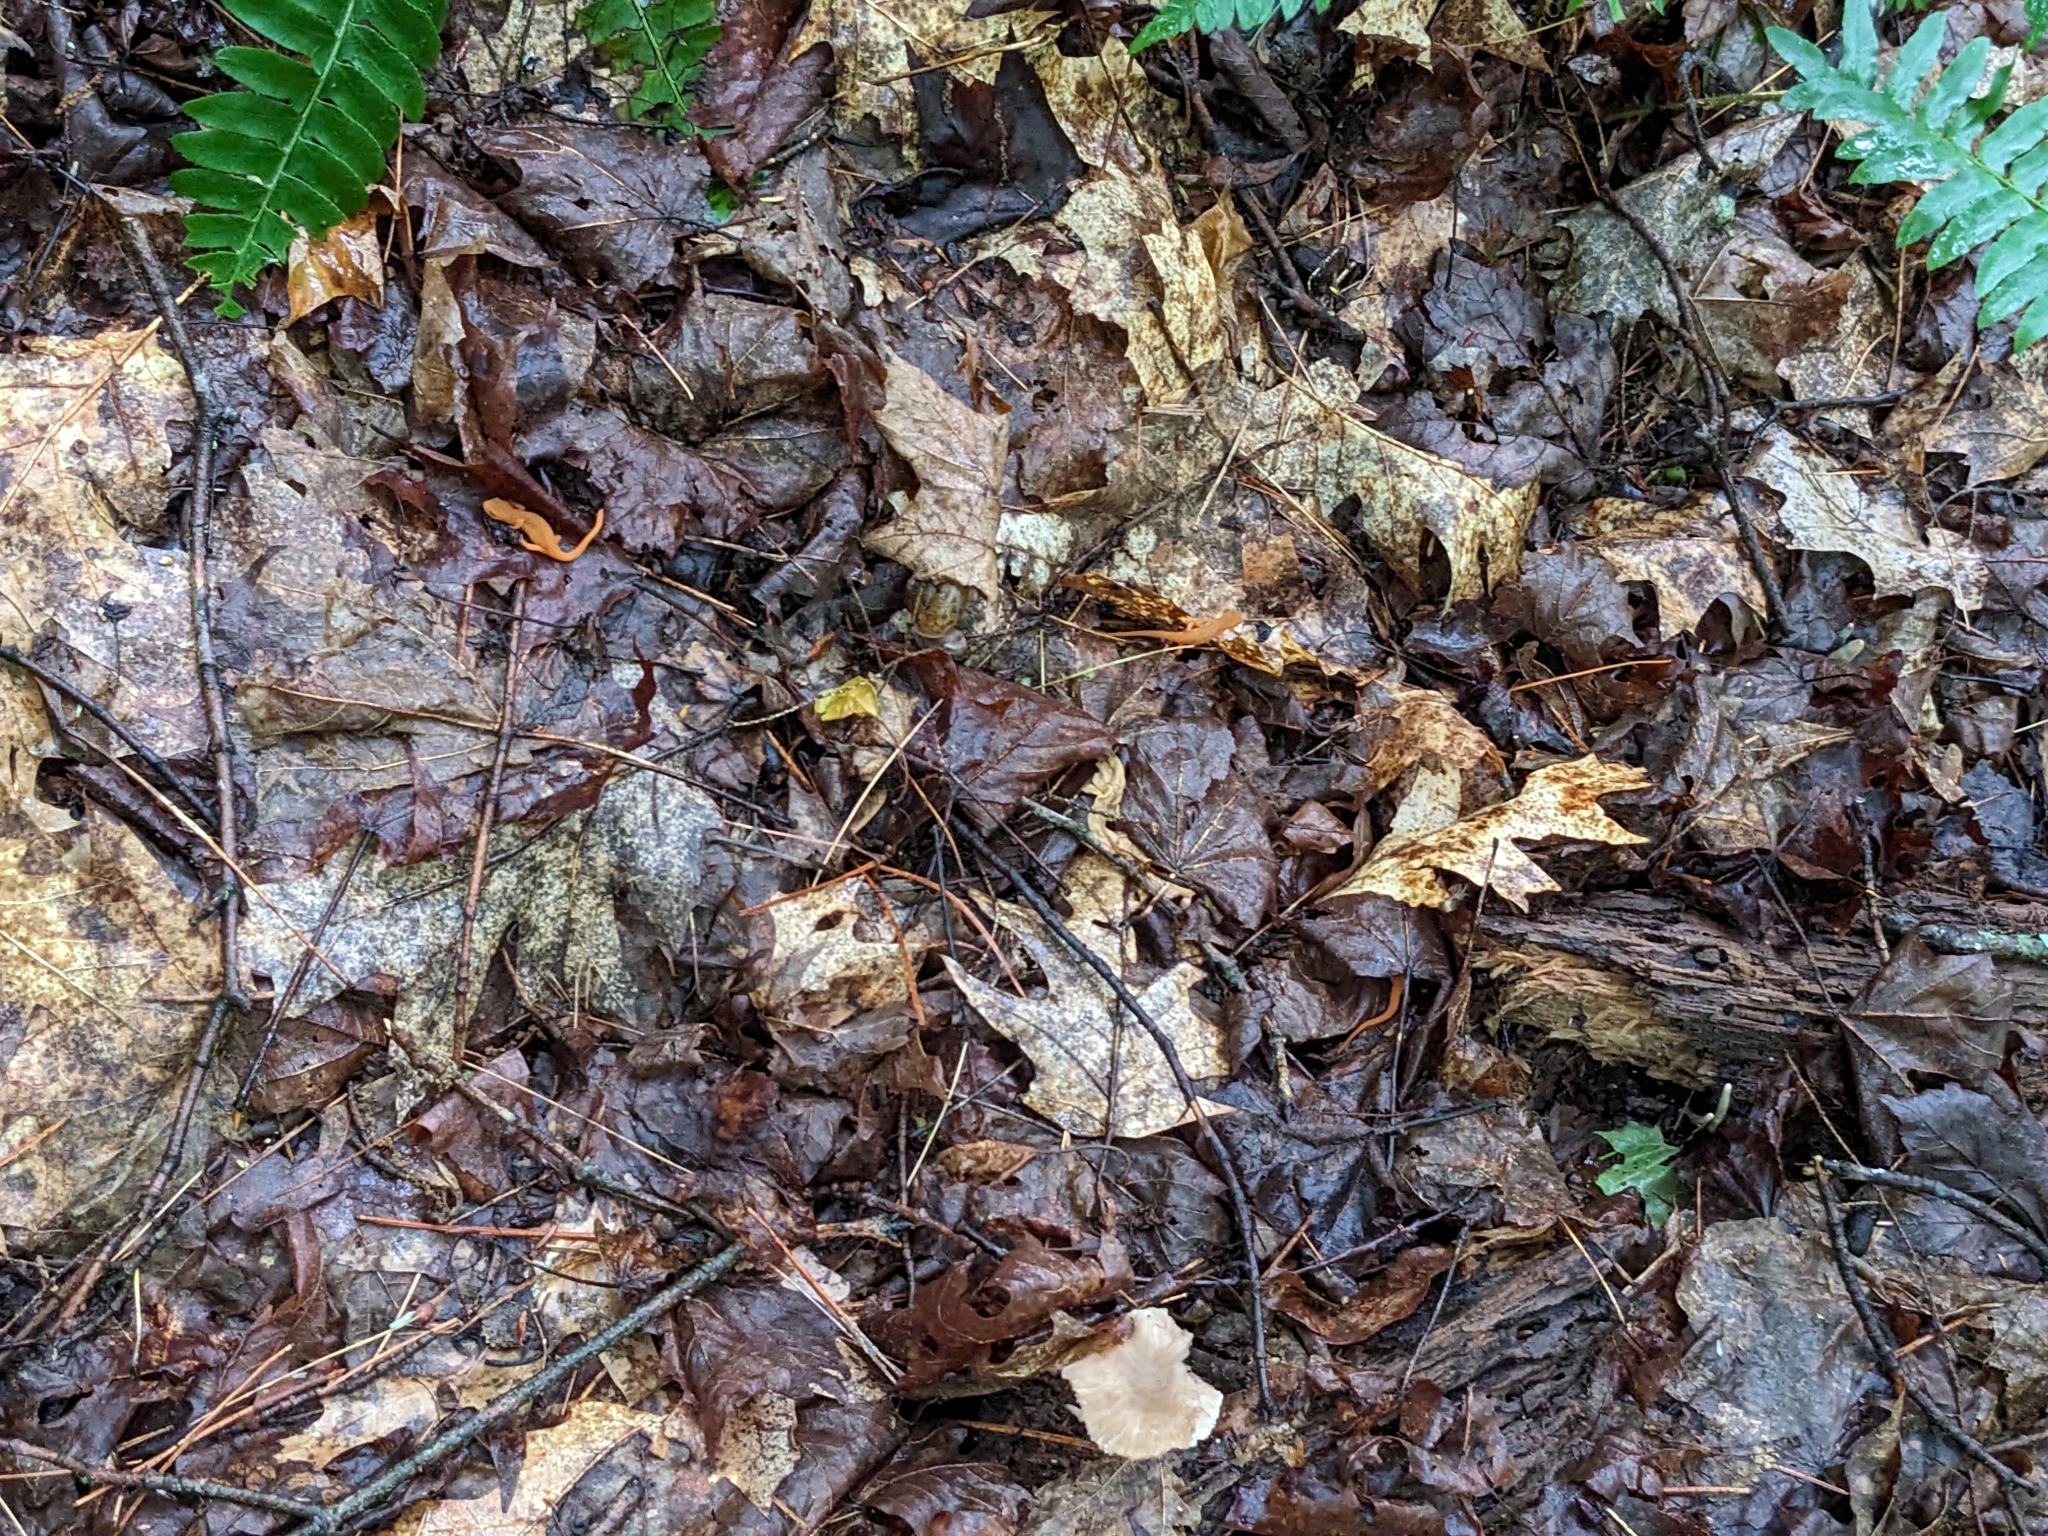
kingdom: Animalia
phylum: Chordata
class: Amphibia
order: Caudata
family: Salamandridae
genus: Notophthalmus
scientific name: Notophthalmus viridescens
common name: Eastern newt
